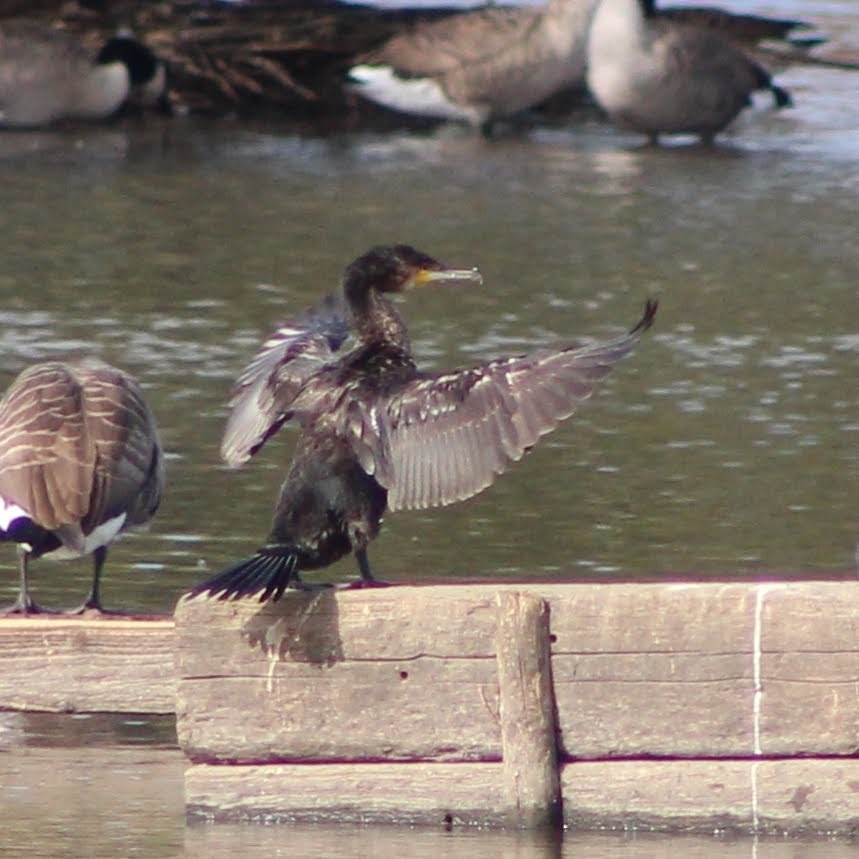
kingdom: Animalia
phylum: Chordata
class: Aves
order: Suliformes
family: Phalacrocoracidae
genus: Phalacrocorax
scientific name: Phalacrocorax carbo
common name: Great cormorant
